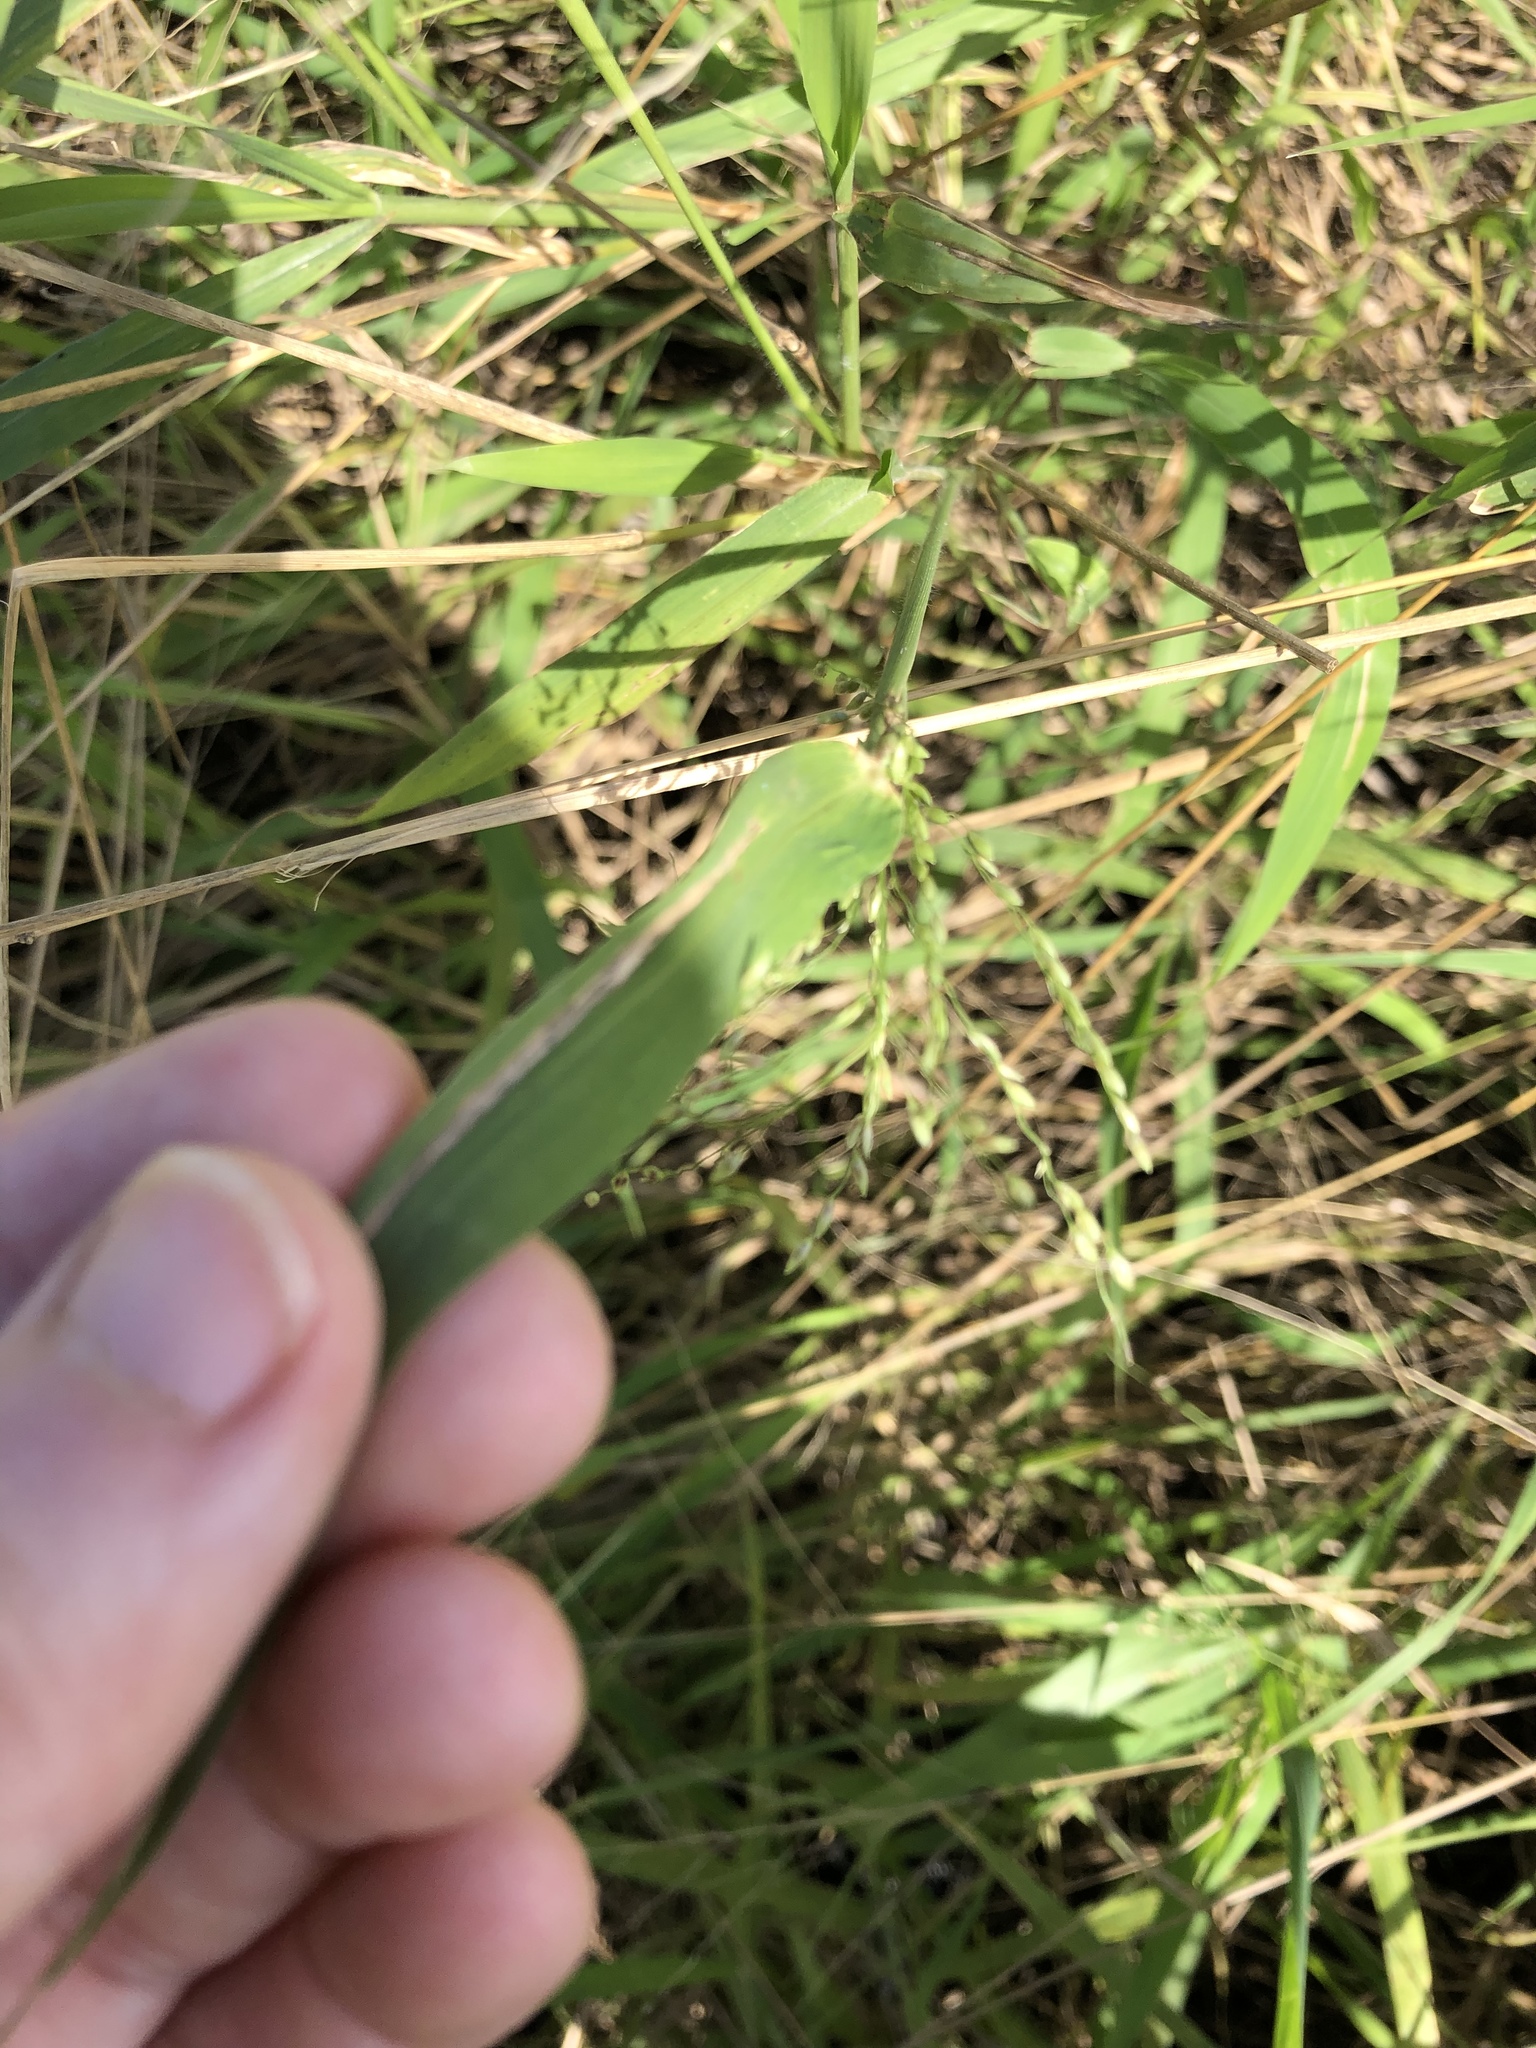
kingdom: Plantae
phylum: Tracheophyta
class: Liliopsida
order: Poales
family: Poaceae
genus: Megathyrsus
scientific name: Megathyrsus maximus
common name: Guineagrass
